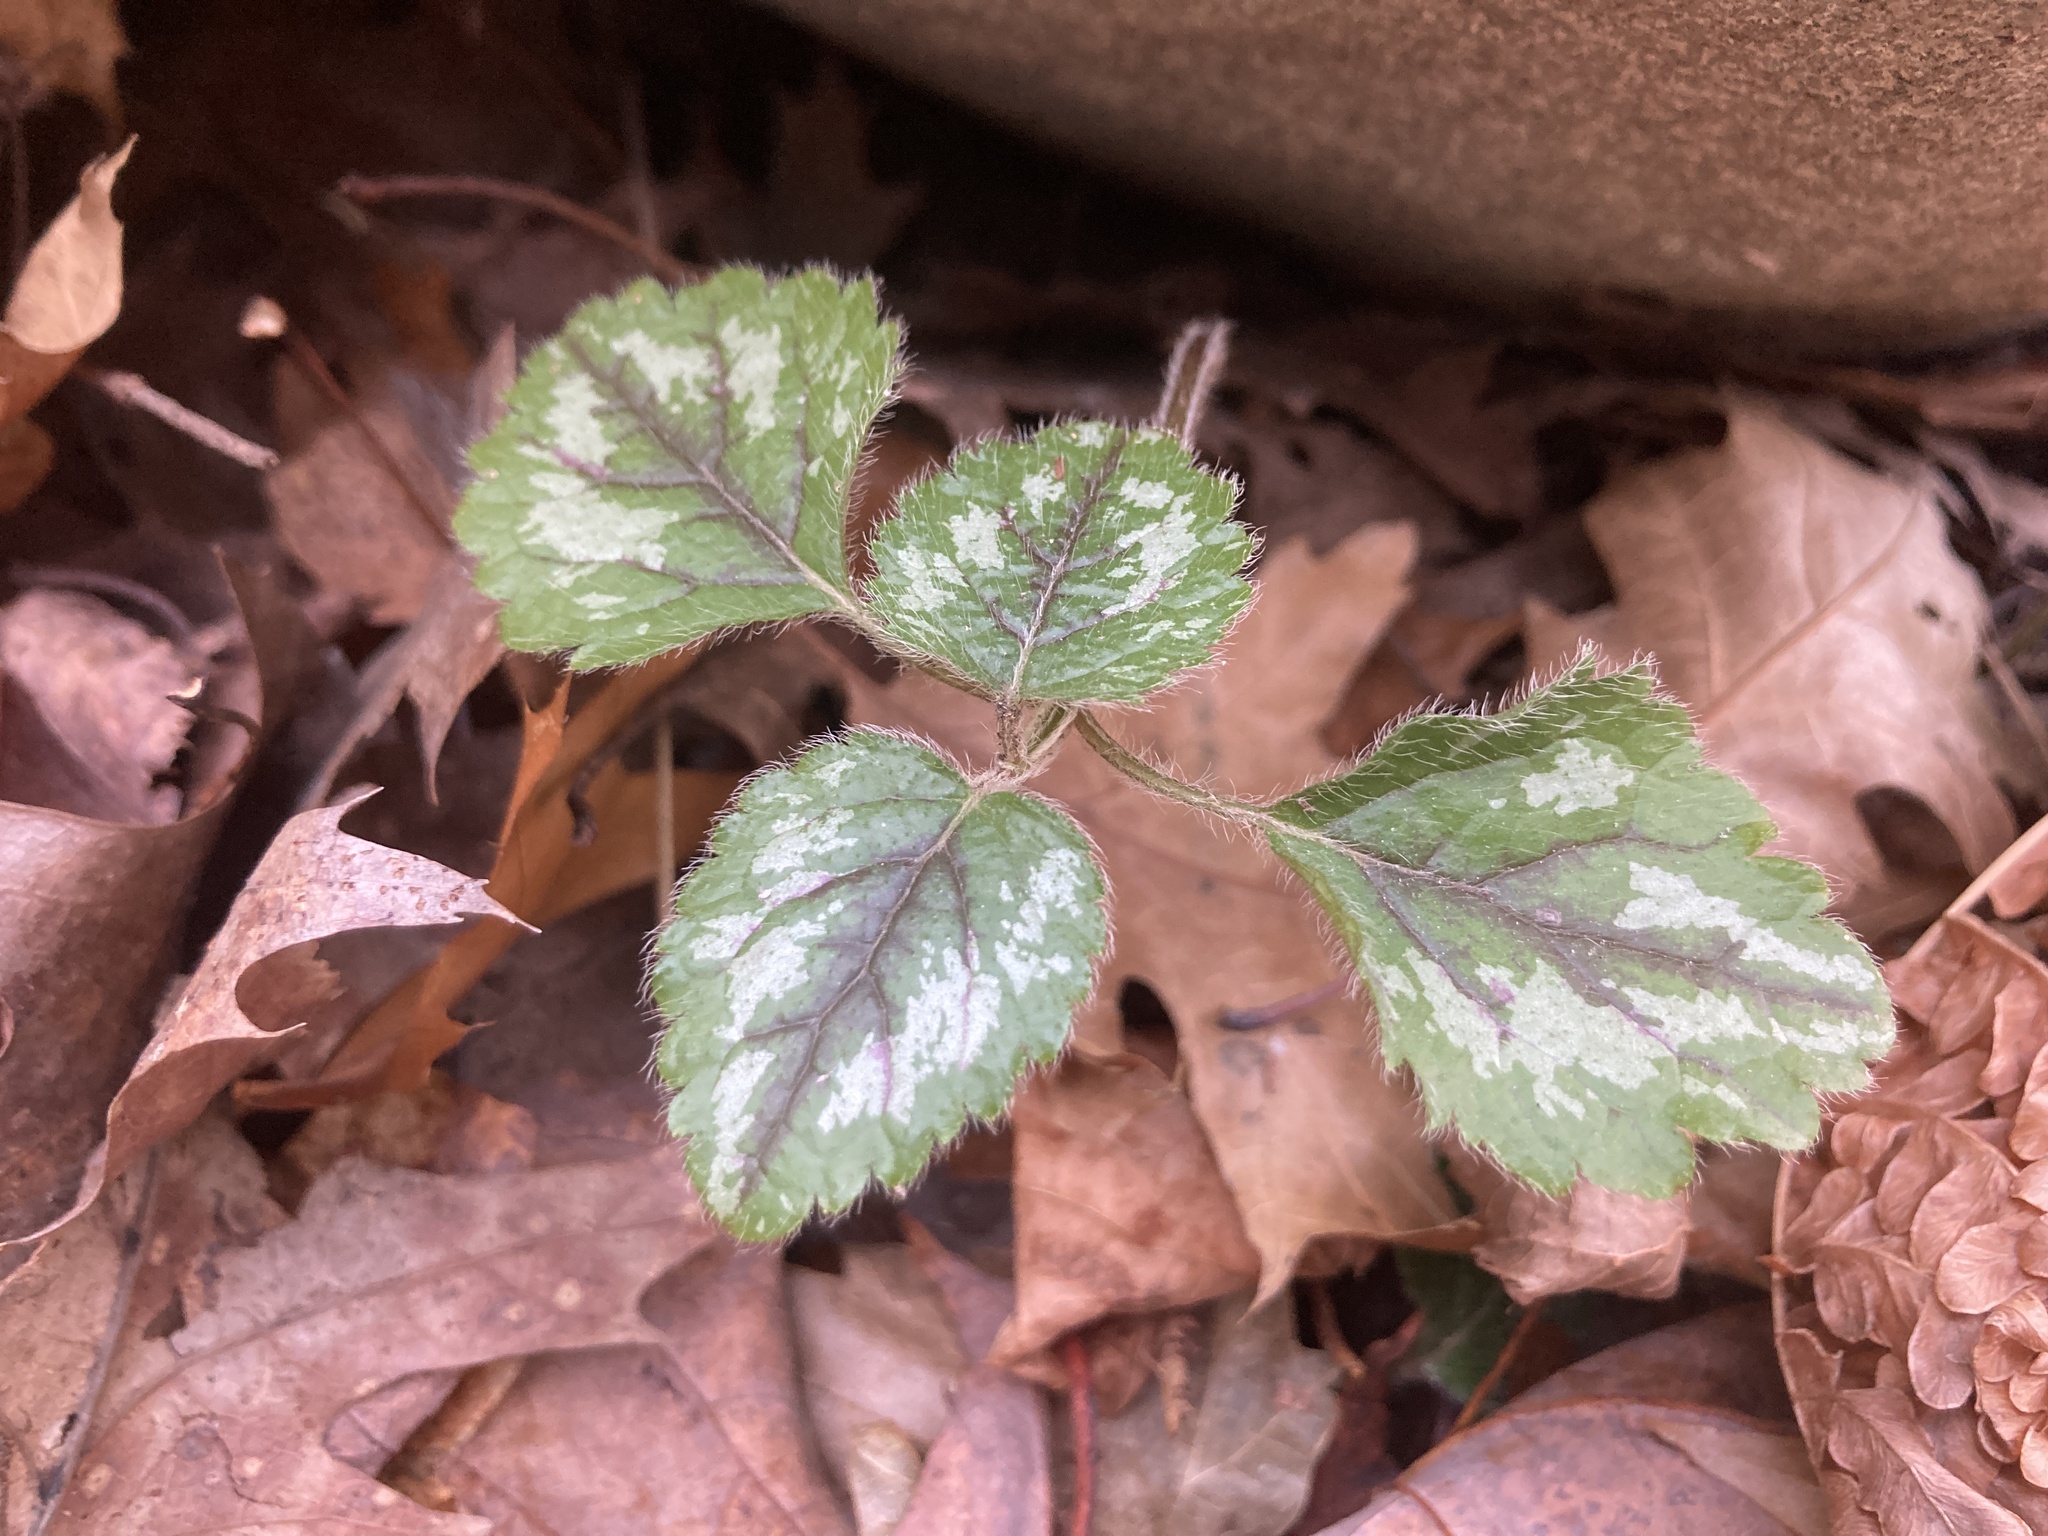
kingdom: Plantae
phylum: Tracheophyta
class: Magnoliopsida
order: Lamiales
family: Lamiaceae
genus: Lamium
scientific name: Lamium galeobdolon
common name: Yellow archangel
